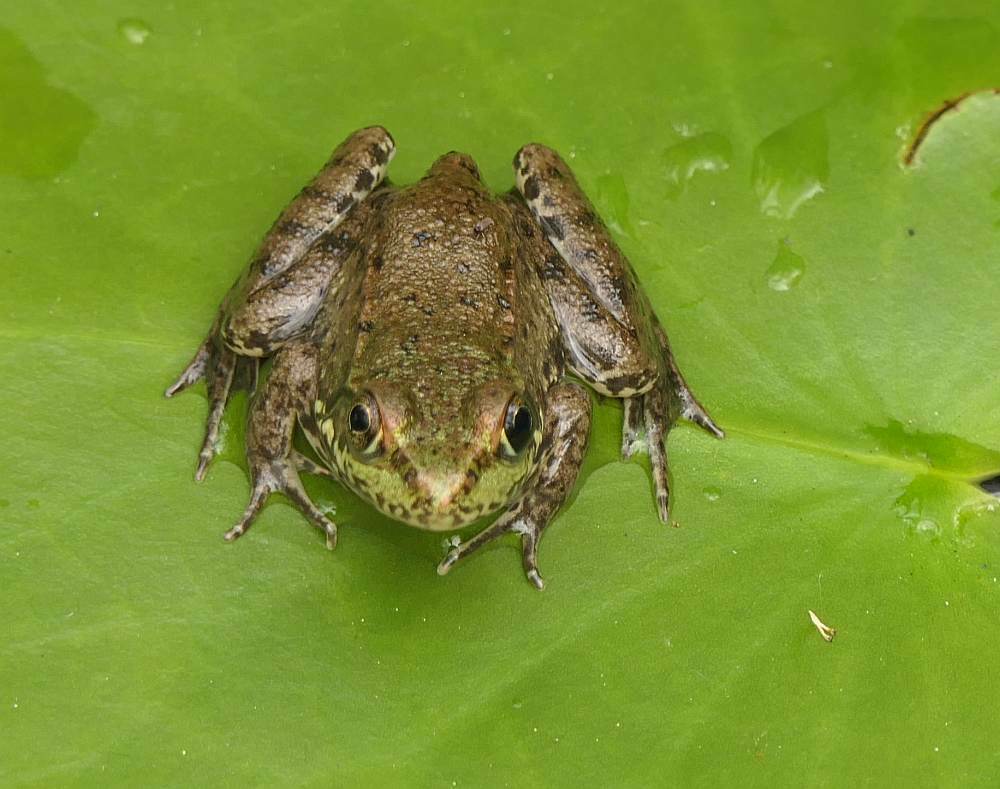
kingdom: Animalia
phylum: Chordata
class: Amphibia
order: Anura
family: Ranidae
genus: Lithobates
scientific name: Lithobates clamitans
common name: Green frog
